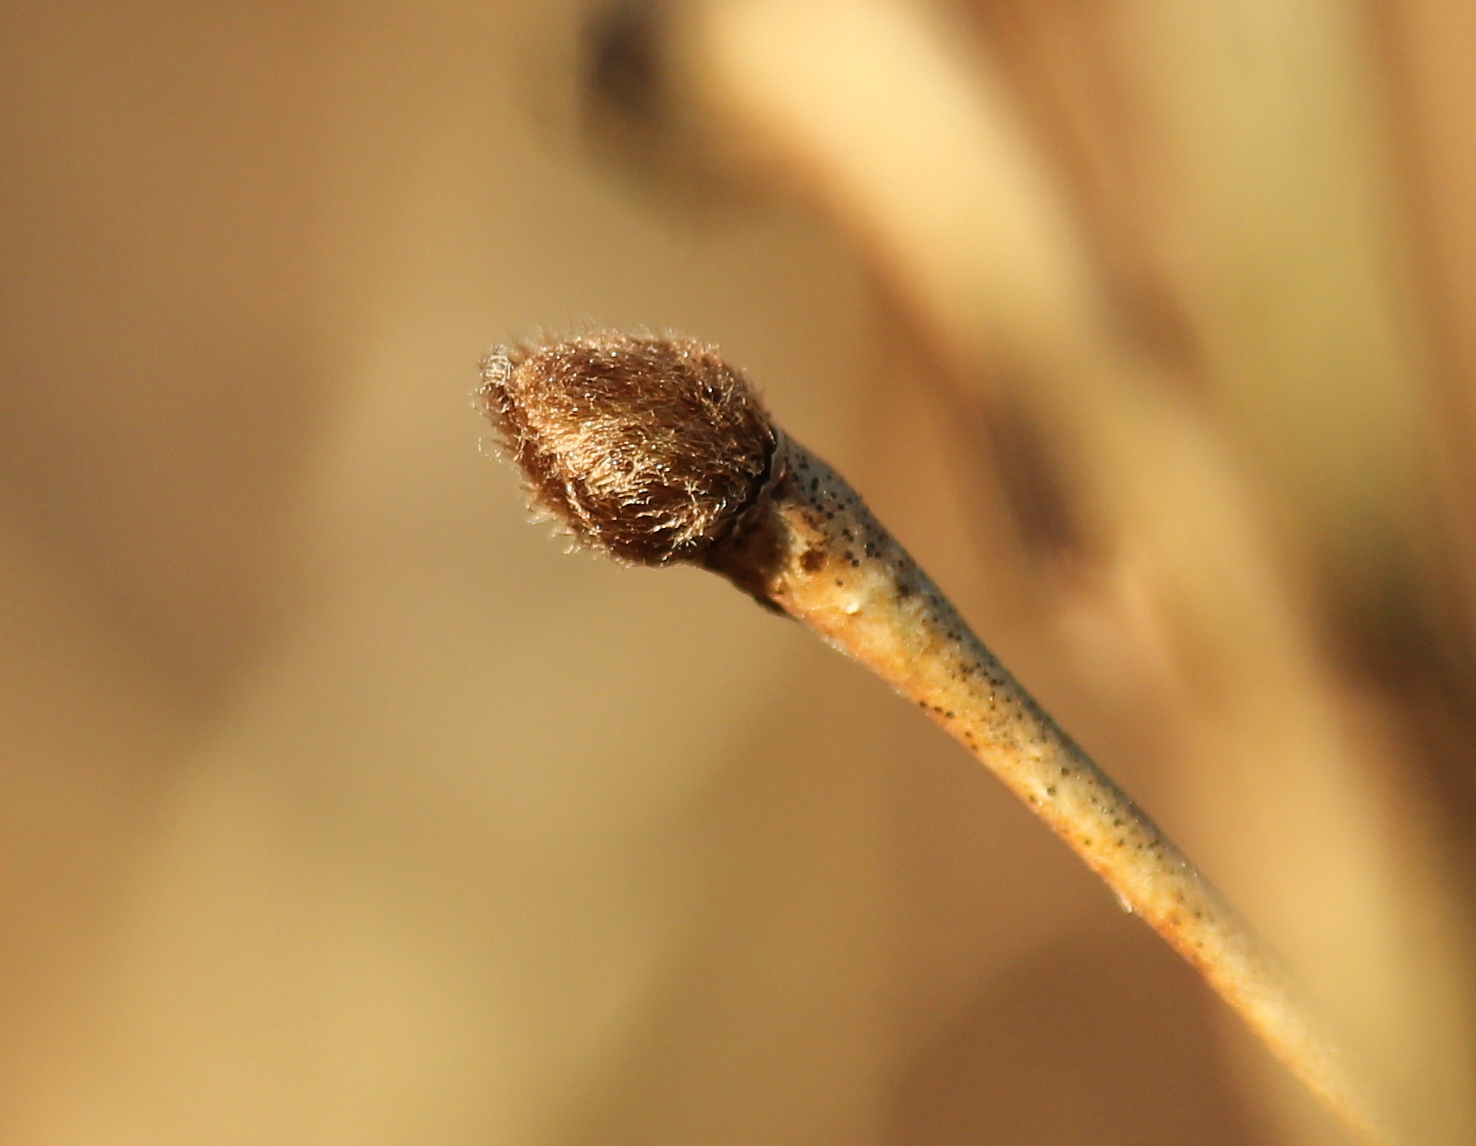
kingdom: Plantae
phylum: Tracheophyta
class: Magnoliopsida
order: Malvales
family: Thymelaeaceae
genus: Dirca
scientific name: Dirca palustris
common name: Leatherwood
